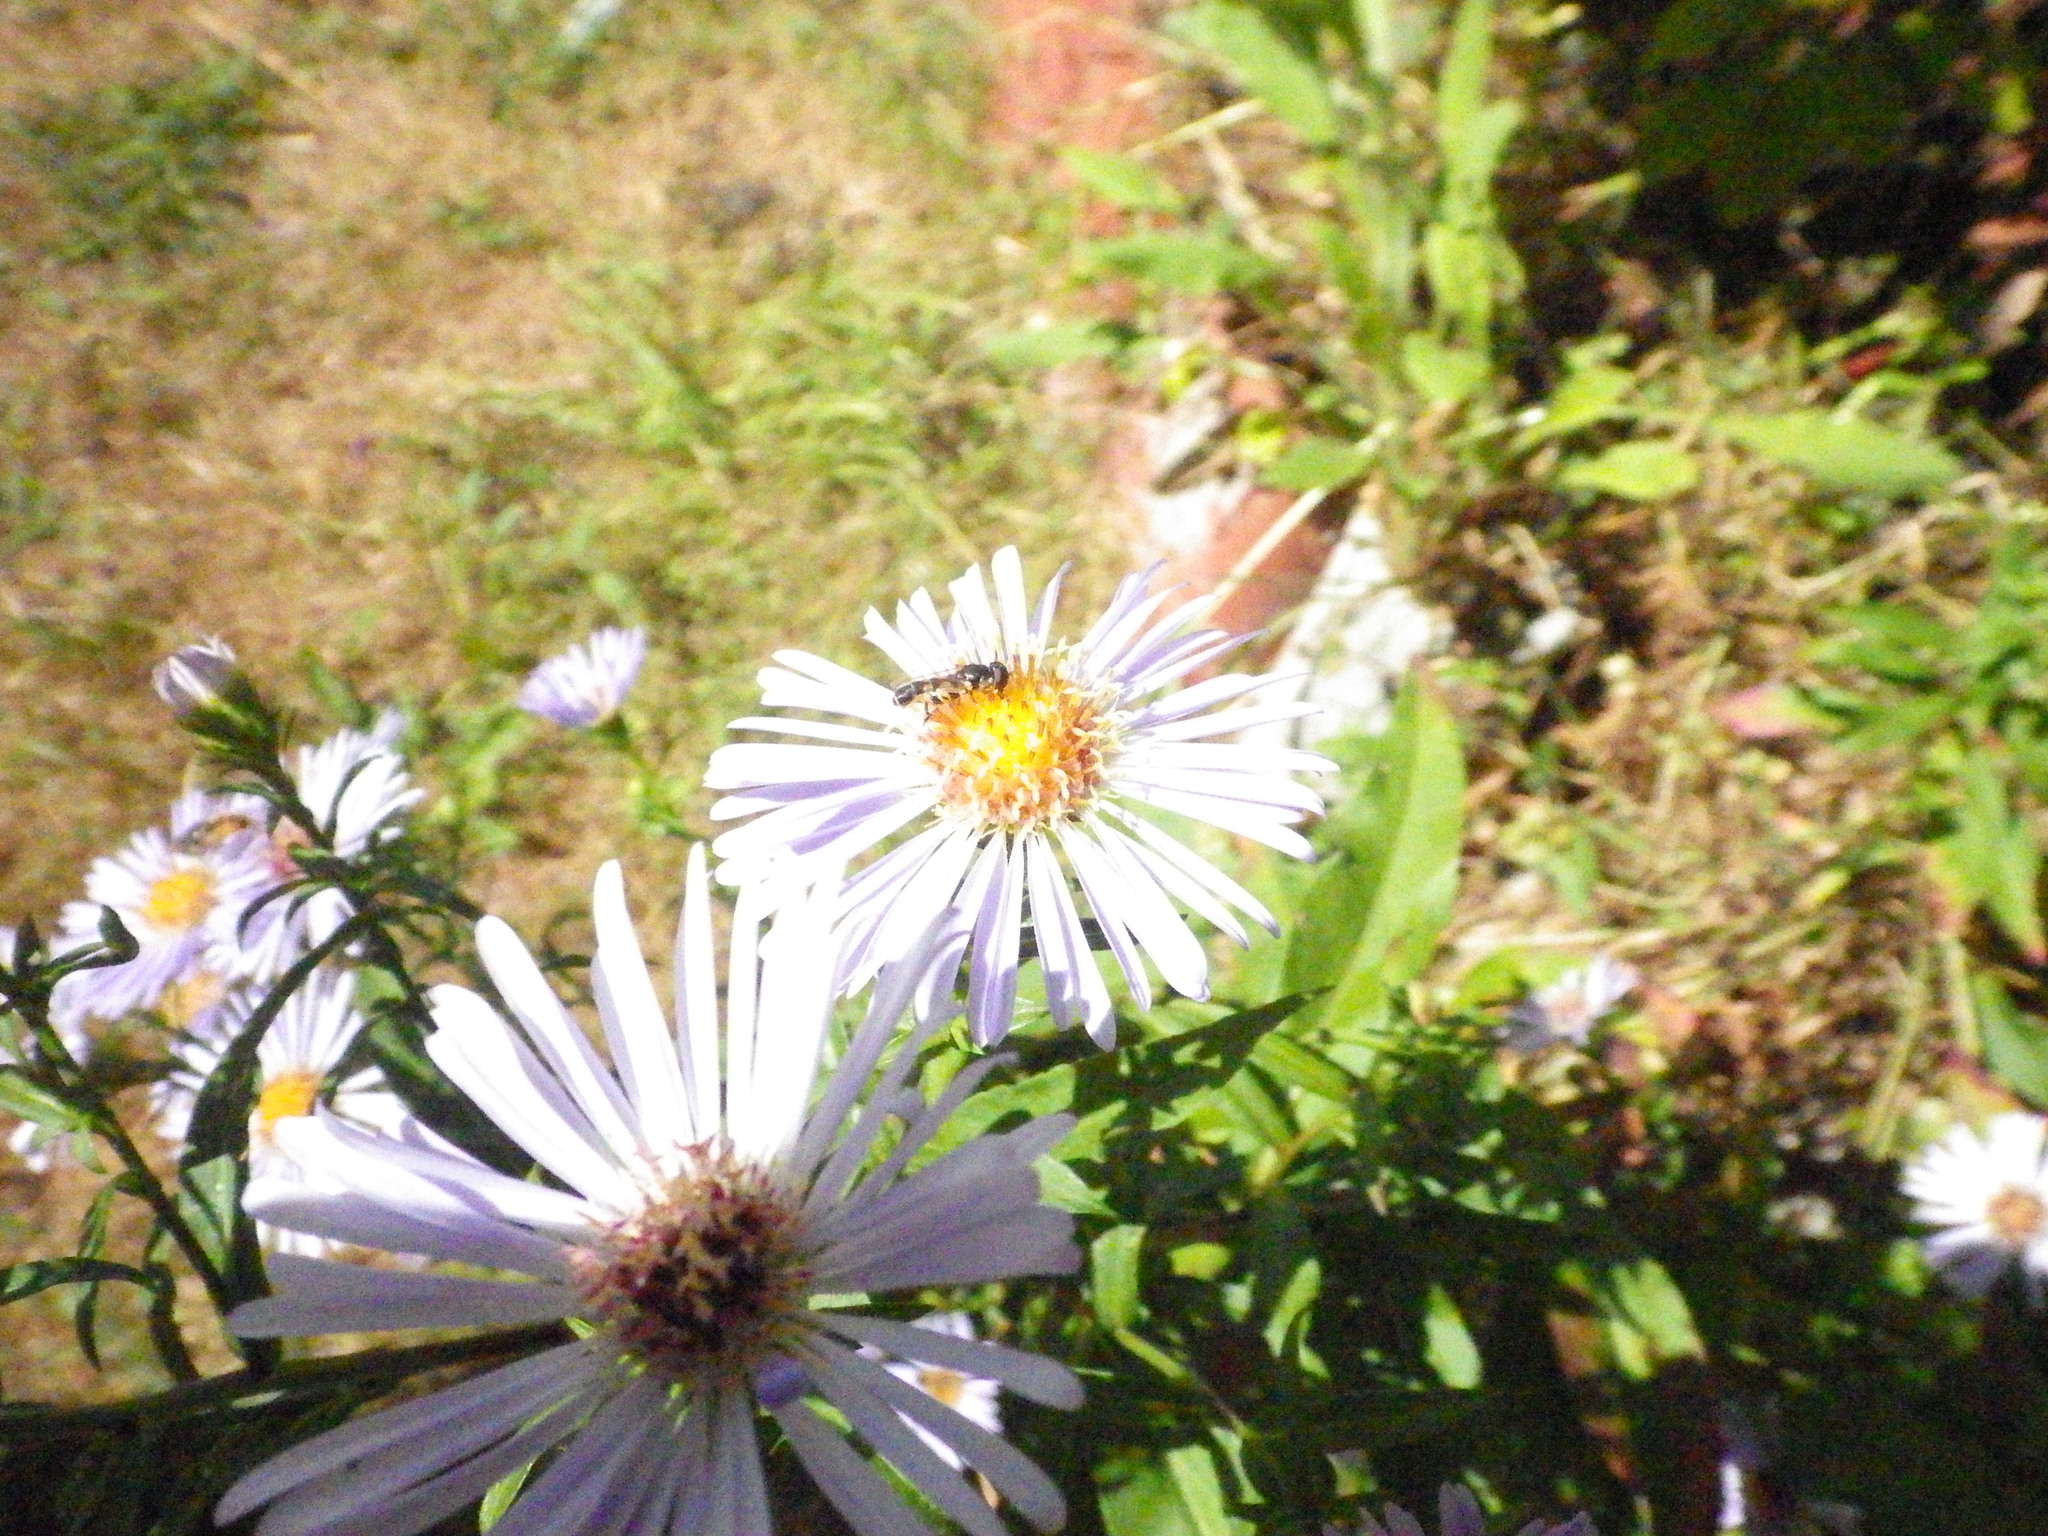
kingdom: Animalia
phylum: Arthropoda
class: Insecta
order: Diptera
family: Syrphidae
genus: Syritta
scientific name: Syritta pipiens
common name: Hover fly
